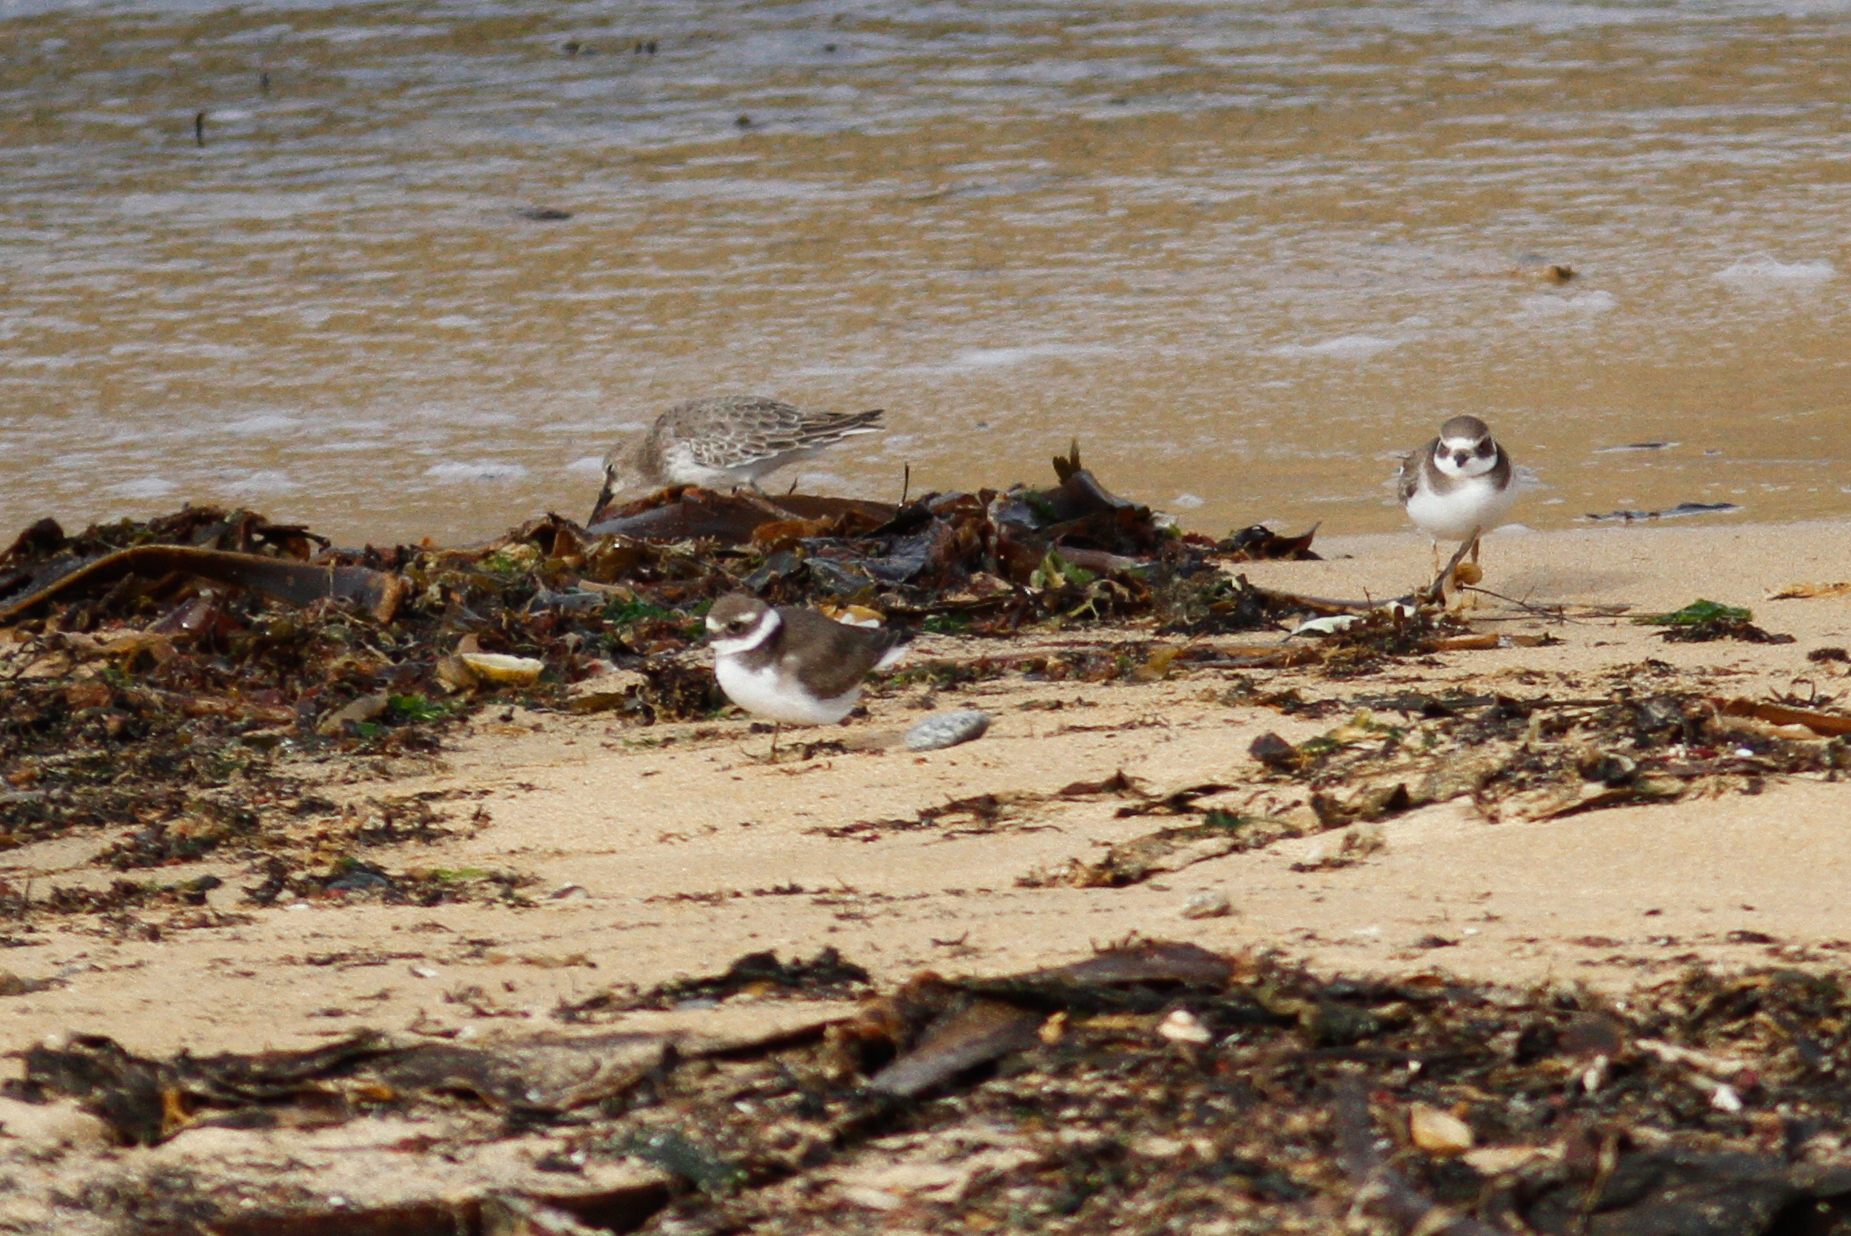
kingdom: Animalia
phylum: Chordata
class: Aves
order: Charadriiformes
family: Charadriidae
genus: Charadrius
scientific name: Charadrius hiaticula
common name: Common ringed plover
